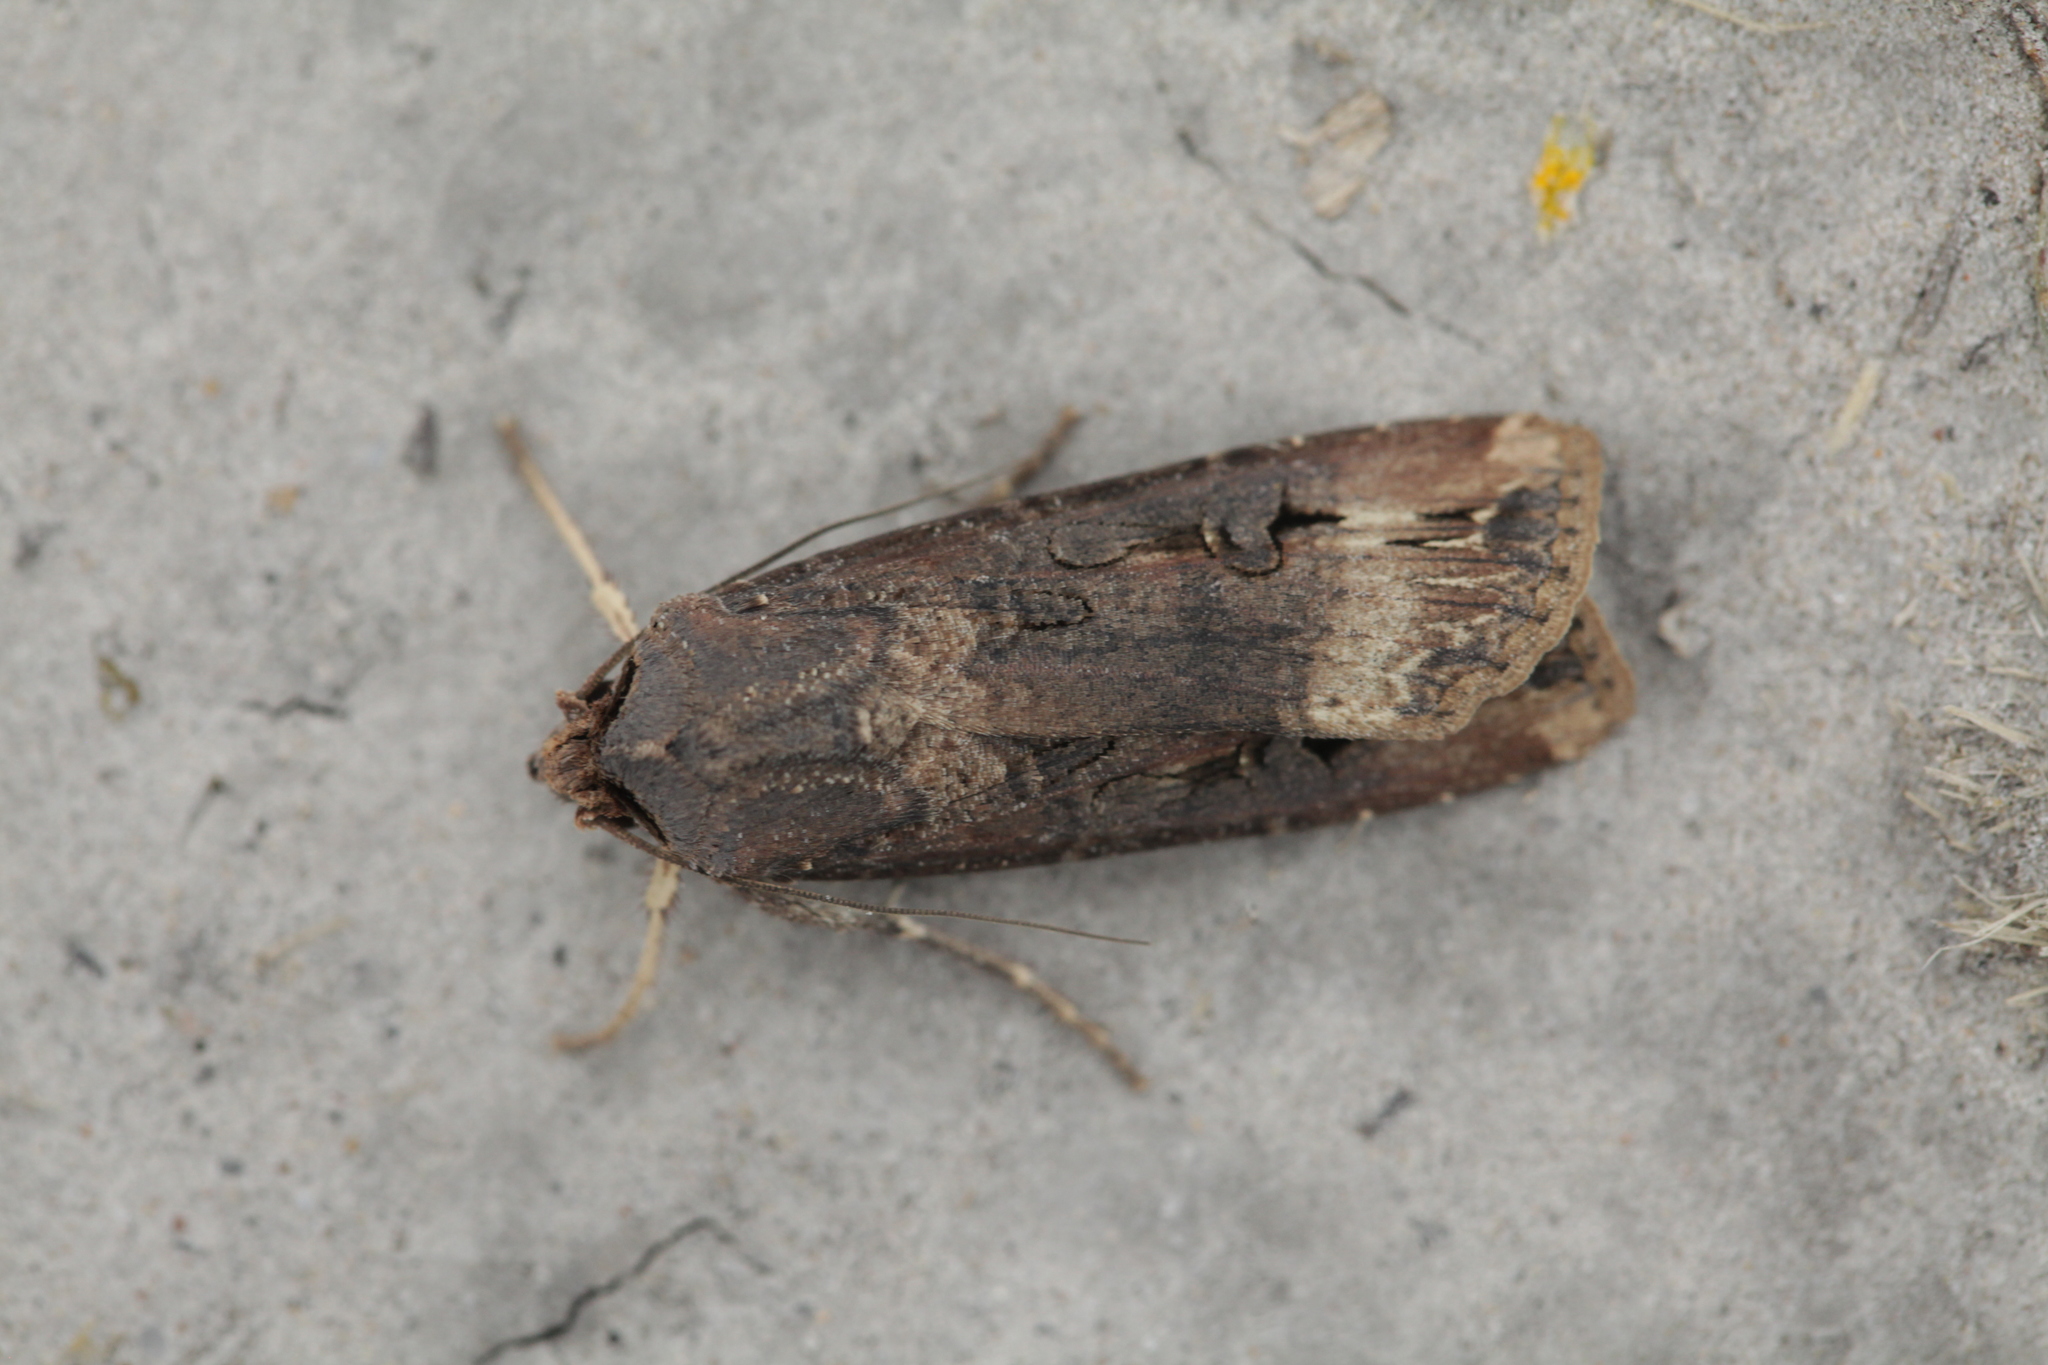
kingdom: Animalia
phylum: Arthropoda
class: Insecta
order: Lepidoptera
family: Noctuidae
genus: Agrotis
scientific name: Agrotis ipsilon
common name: Dark sword-grass
